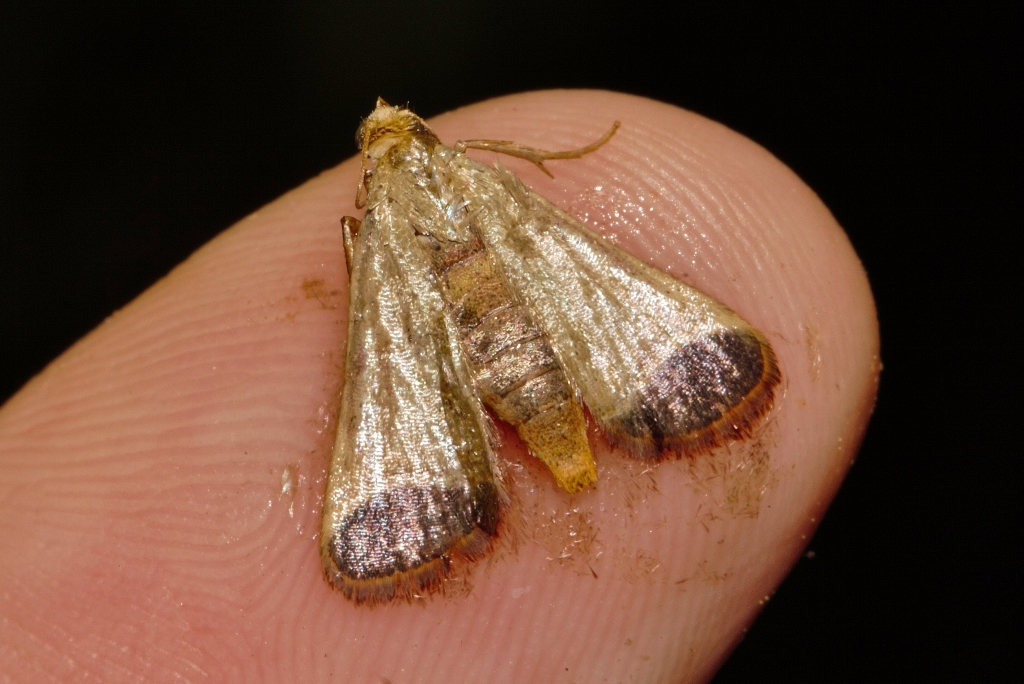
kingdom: Animalia
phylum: Arthropoda
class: Insecta
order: Lepidoptera
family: Pyralidae
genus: Tegulifera
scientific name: Tegulifera Sphalerosticha oblunata
